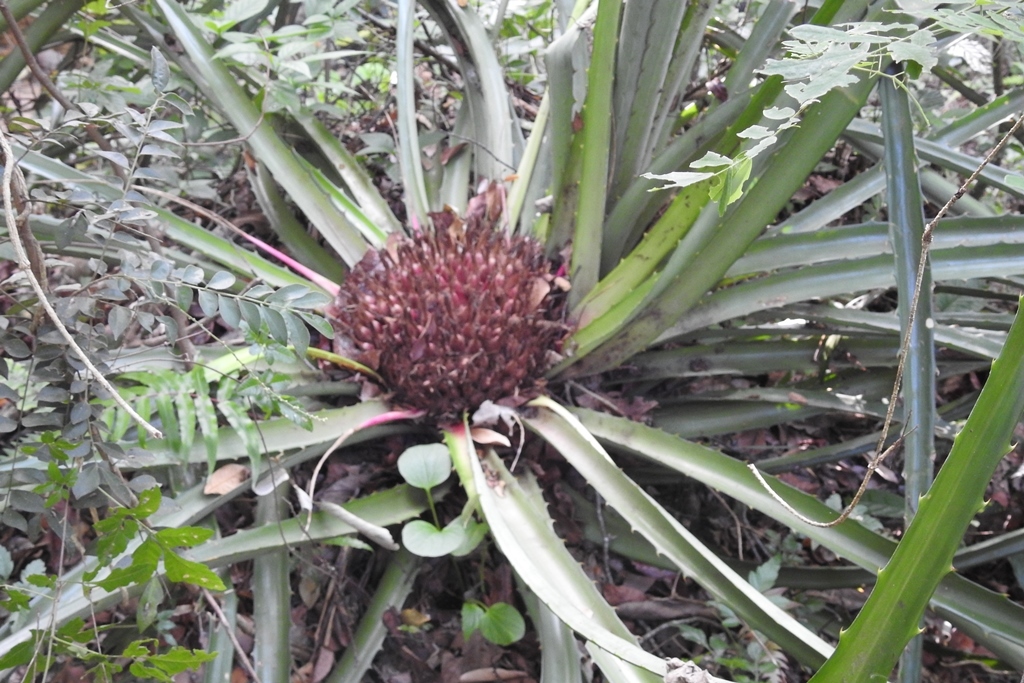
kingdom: Plantae
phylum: Tracheophyta
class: Liliopsida
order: Poales
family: Bromeliaceae
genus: Bromelia
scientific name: Bromelia karatas
